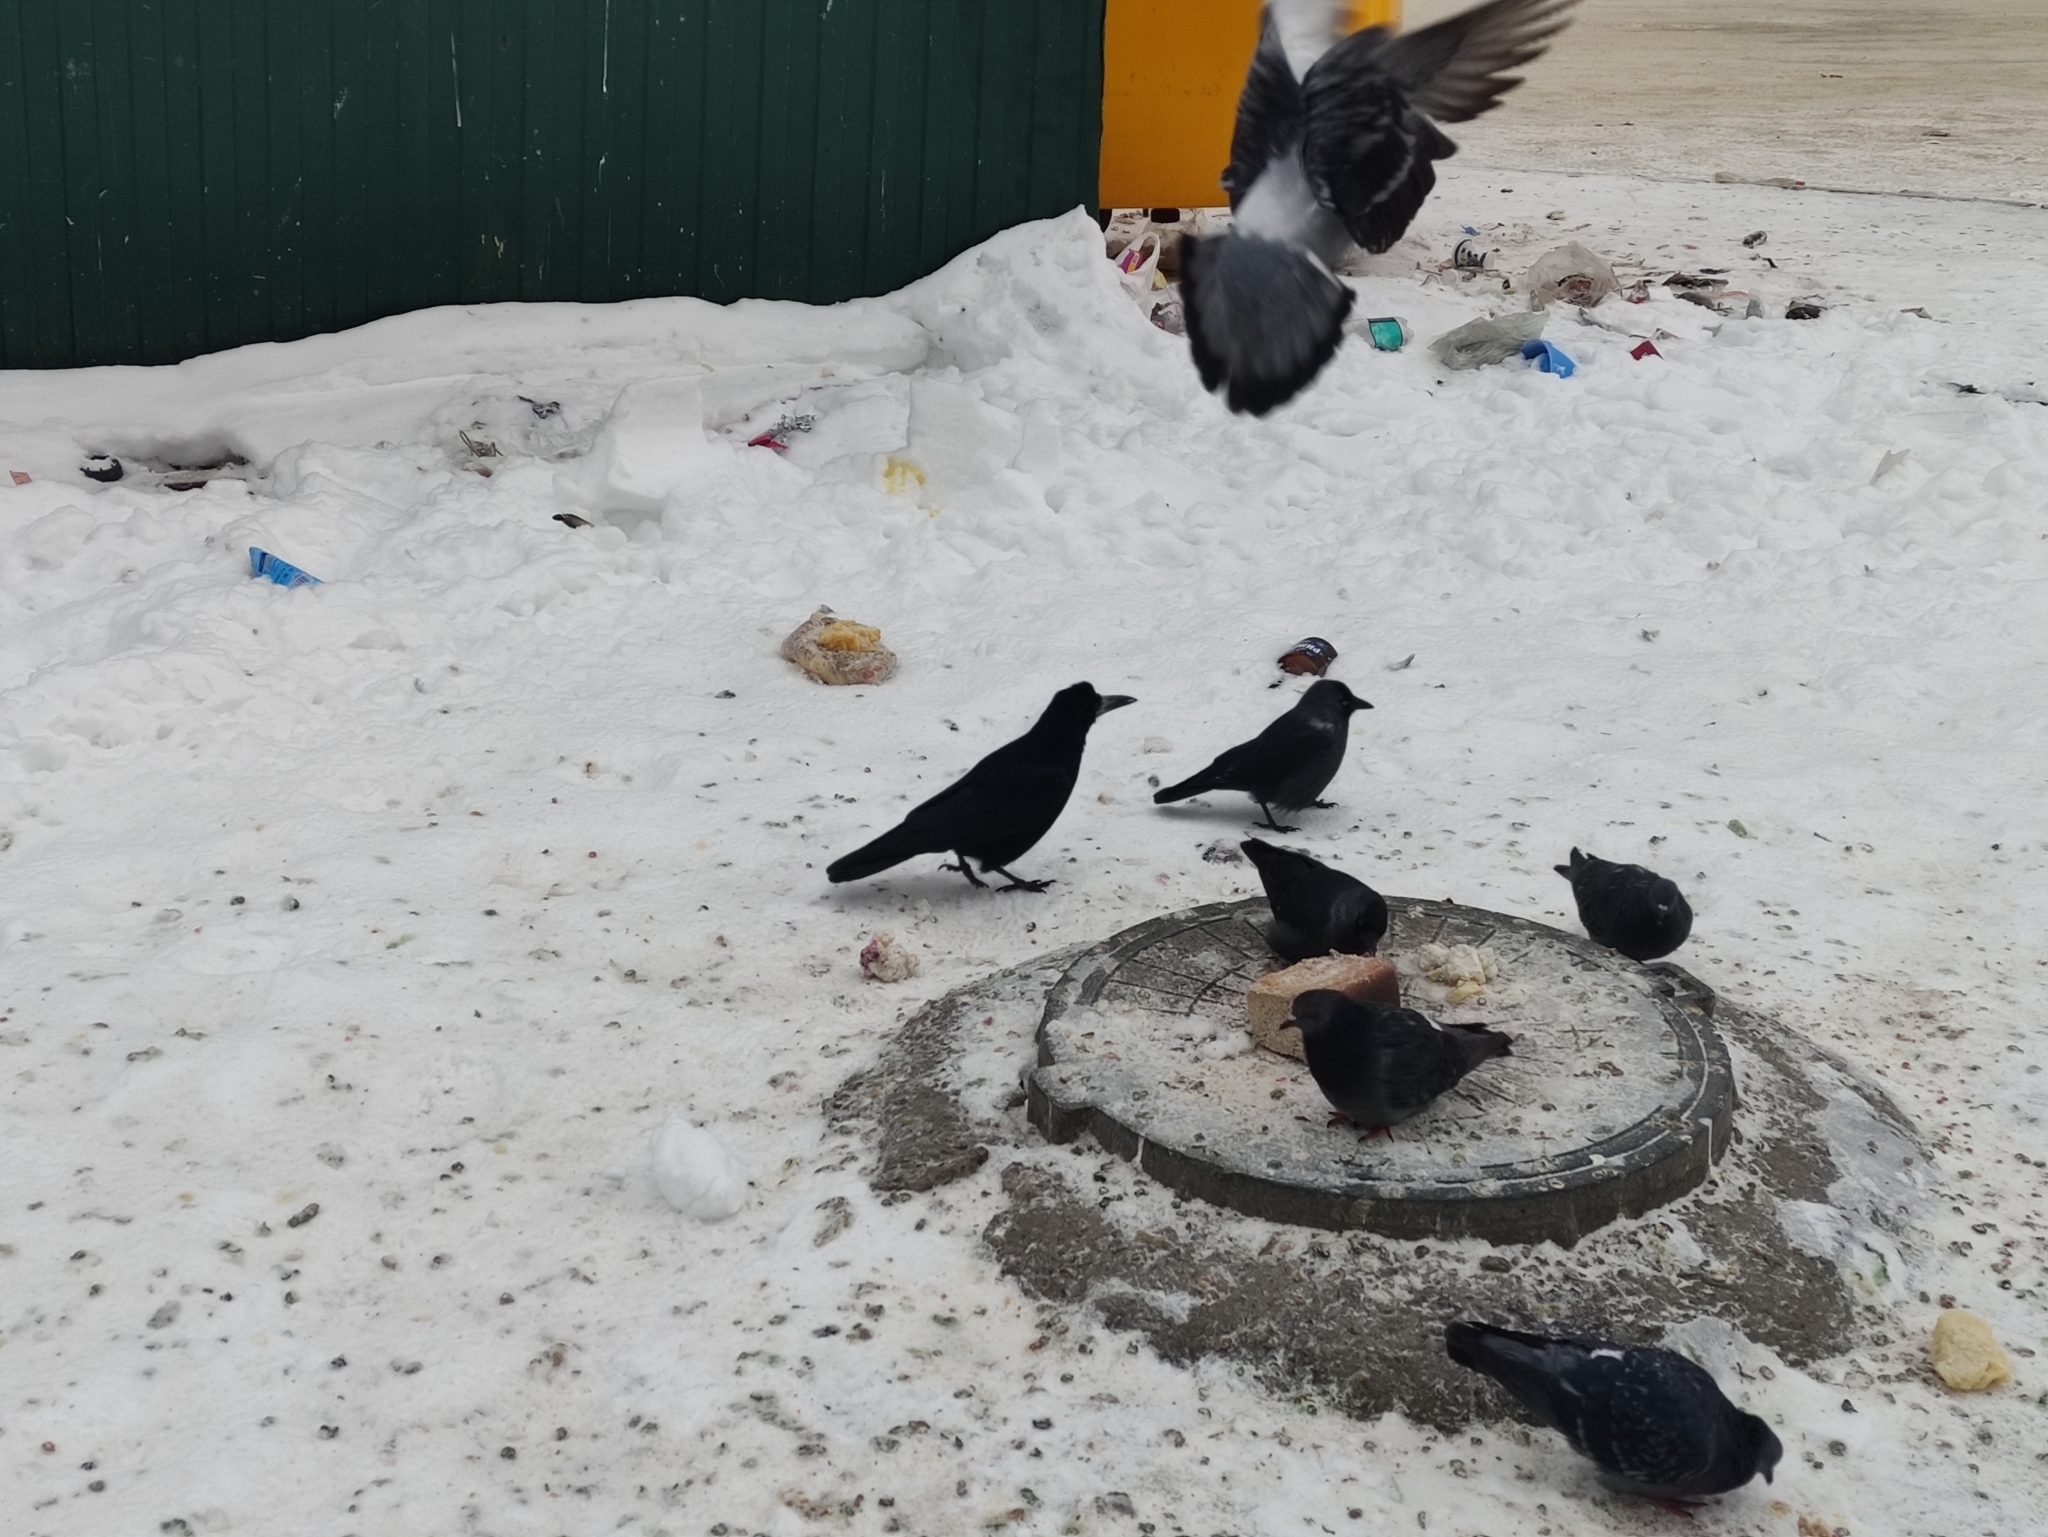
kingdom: Animalia
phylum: Chordata
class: Aves
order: Passeriformes
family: Corvidae
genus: Corvus
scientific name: Corvus frugilegus
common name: Rook
